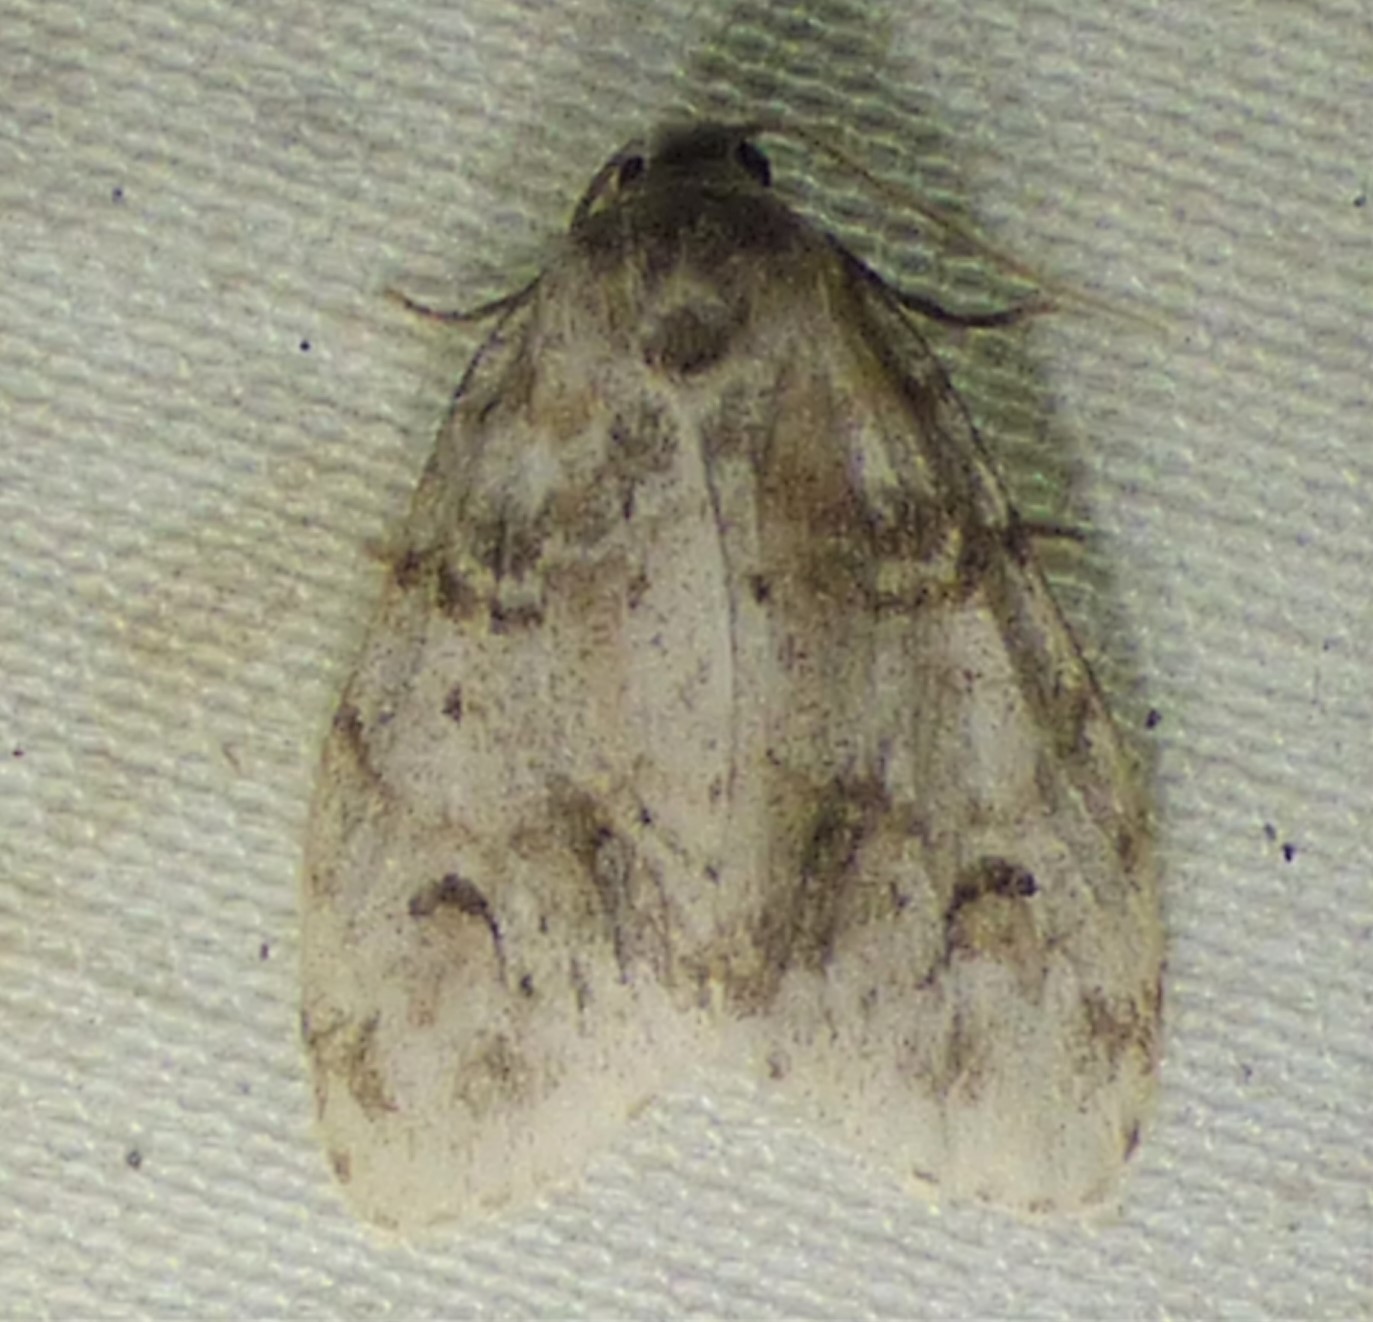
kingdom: Animalia
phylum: Arthropoda
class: Insecta
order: Lepidoptera
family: Erebidae
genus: Clemensia
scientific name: Clemensia albata
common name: Little white lichen moth
